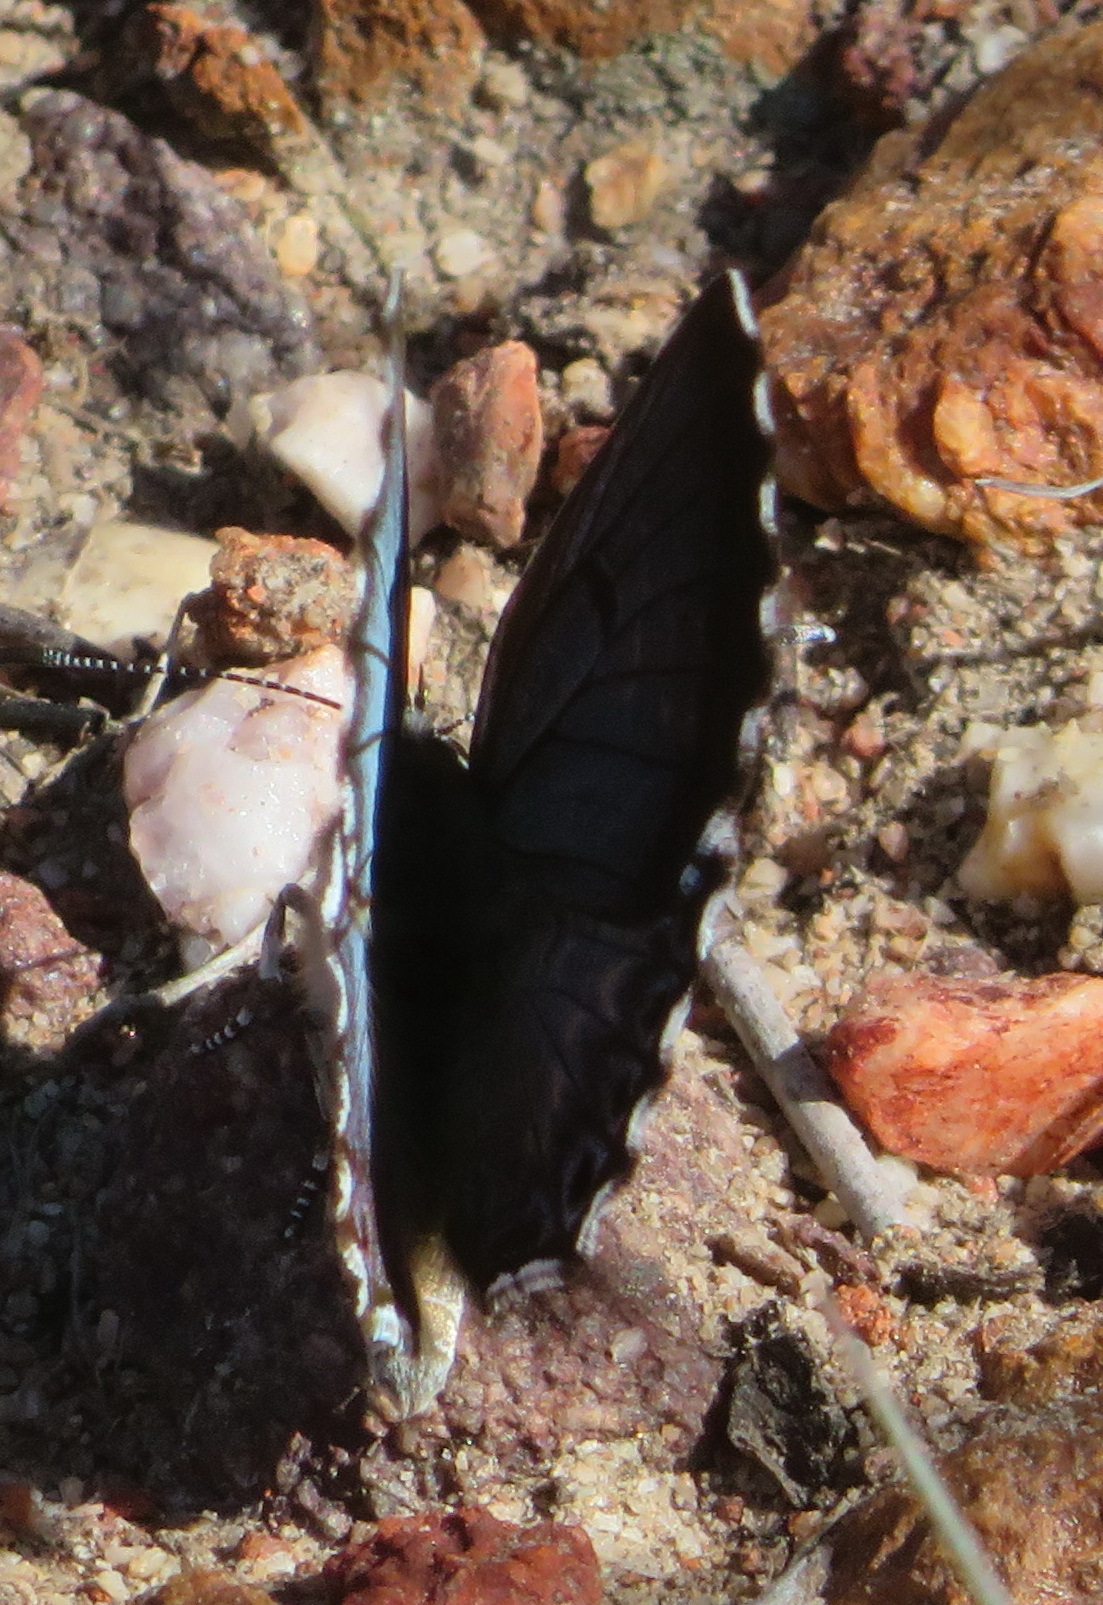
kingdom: Animalia
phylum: Arthropoda
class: Insecta
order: Lepidoptera
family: Lycaenidae
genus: Lepidochrysops
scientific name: Lepidochrysops braueri
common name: Brauer's blue
